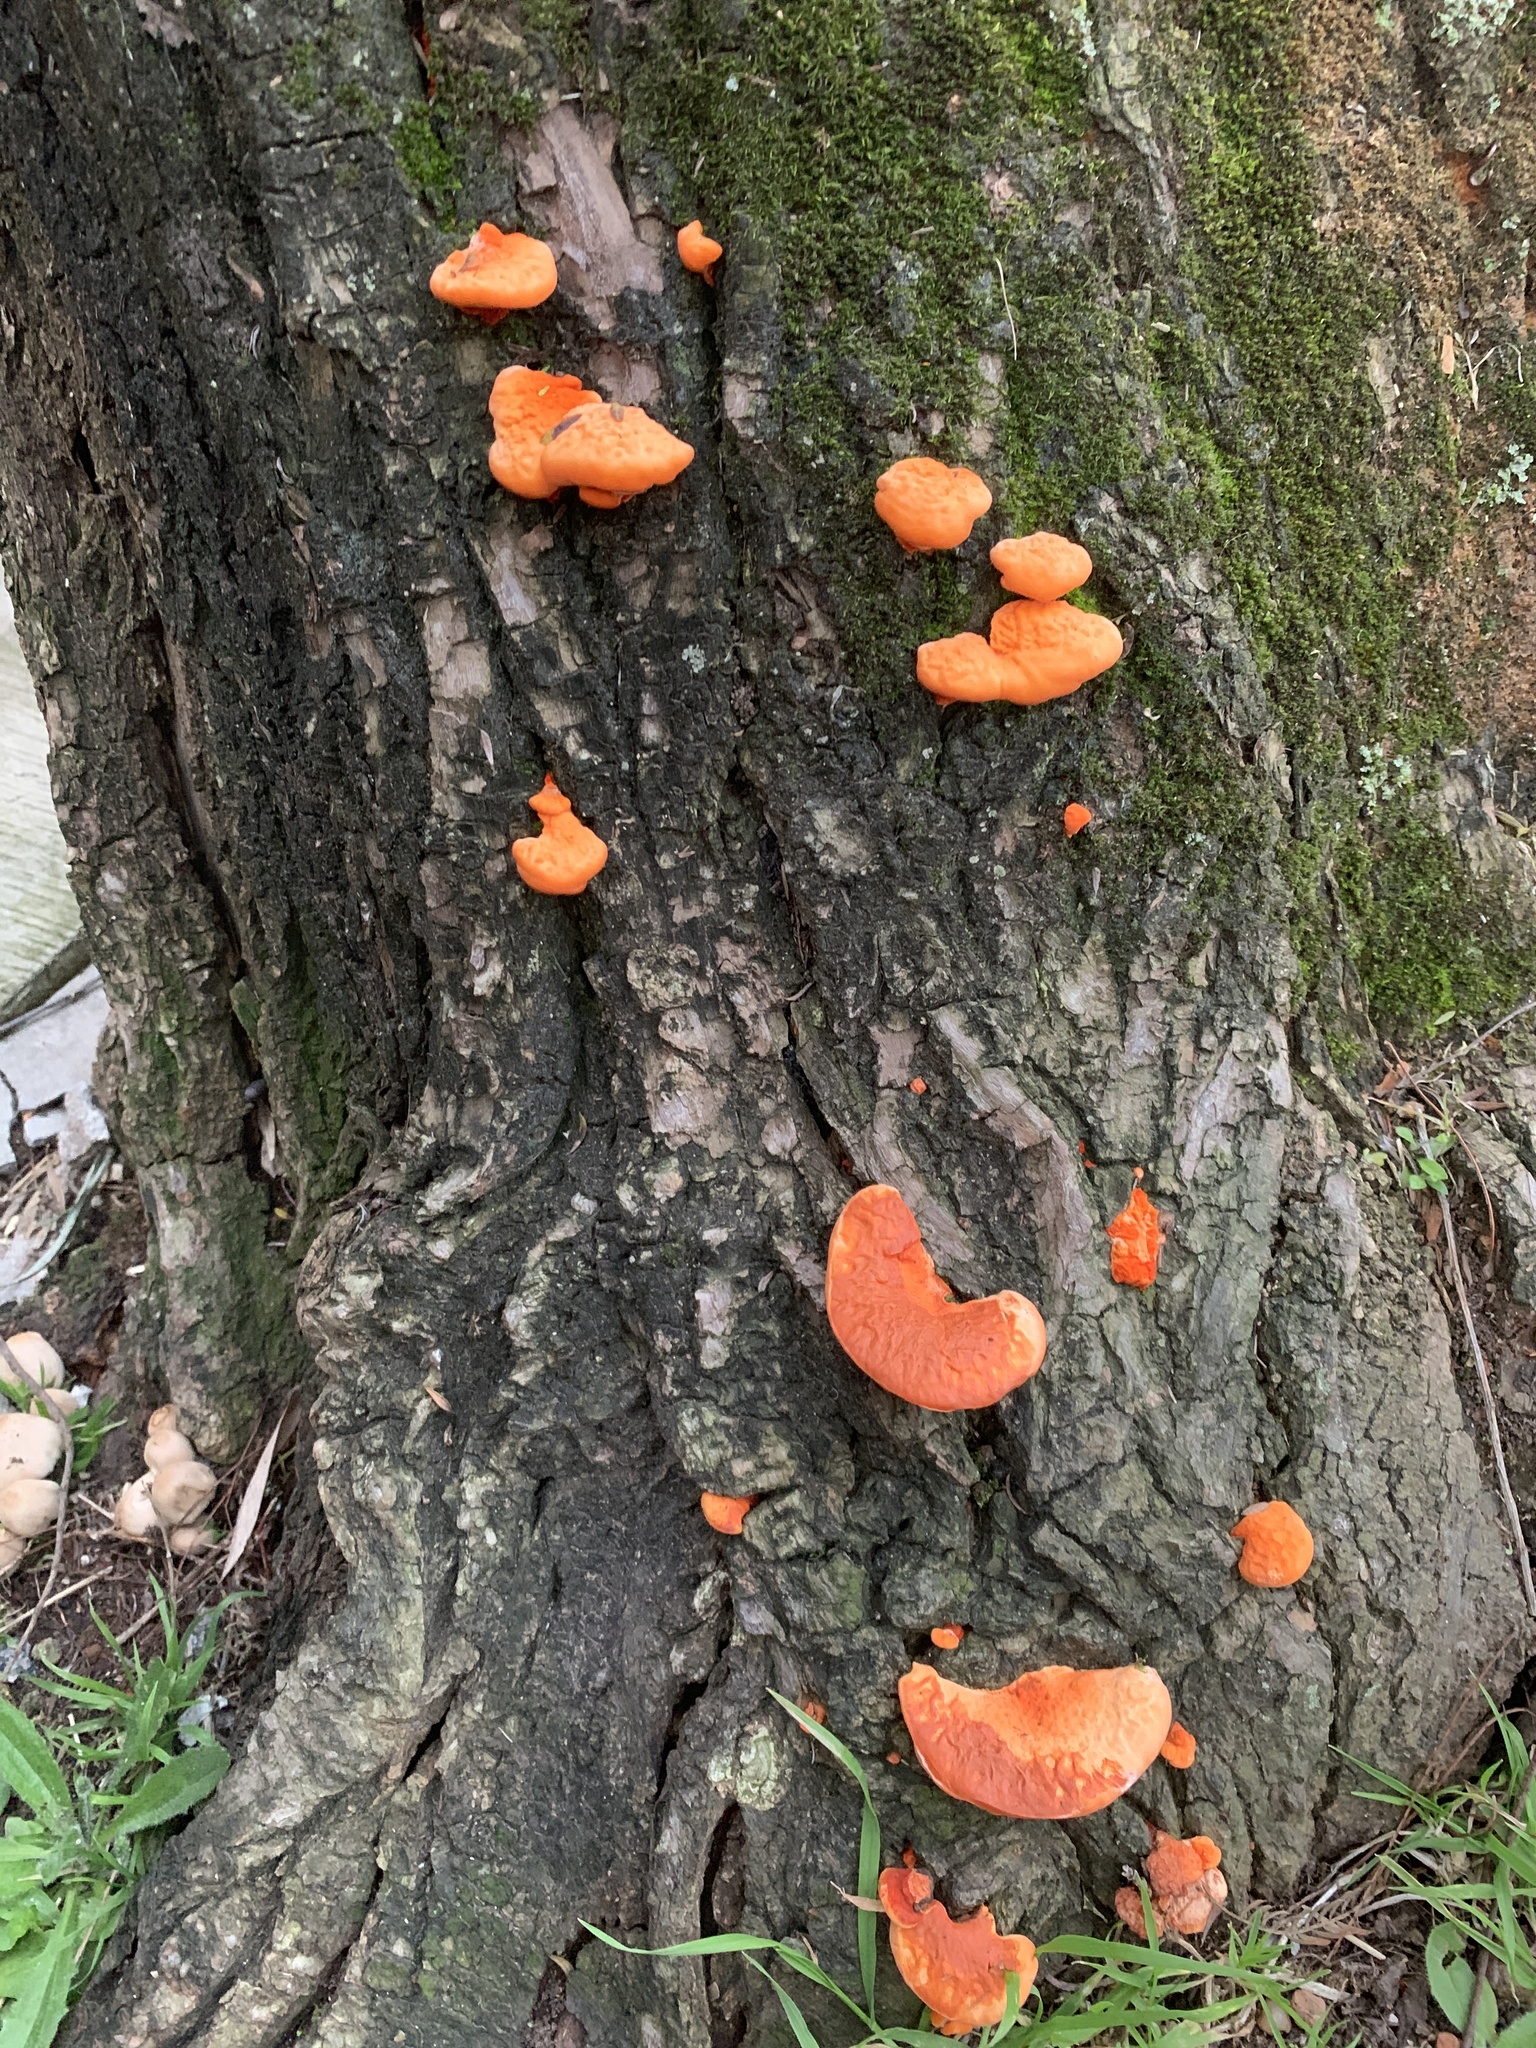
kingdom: Fungi
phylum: Basidiomycota
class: Agaricomycetes
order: Polyporales
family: Polyporaceae
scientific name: Polyporaceae
